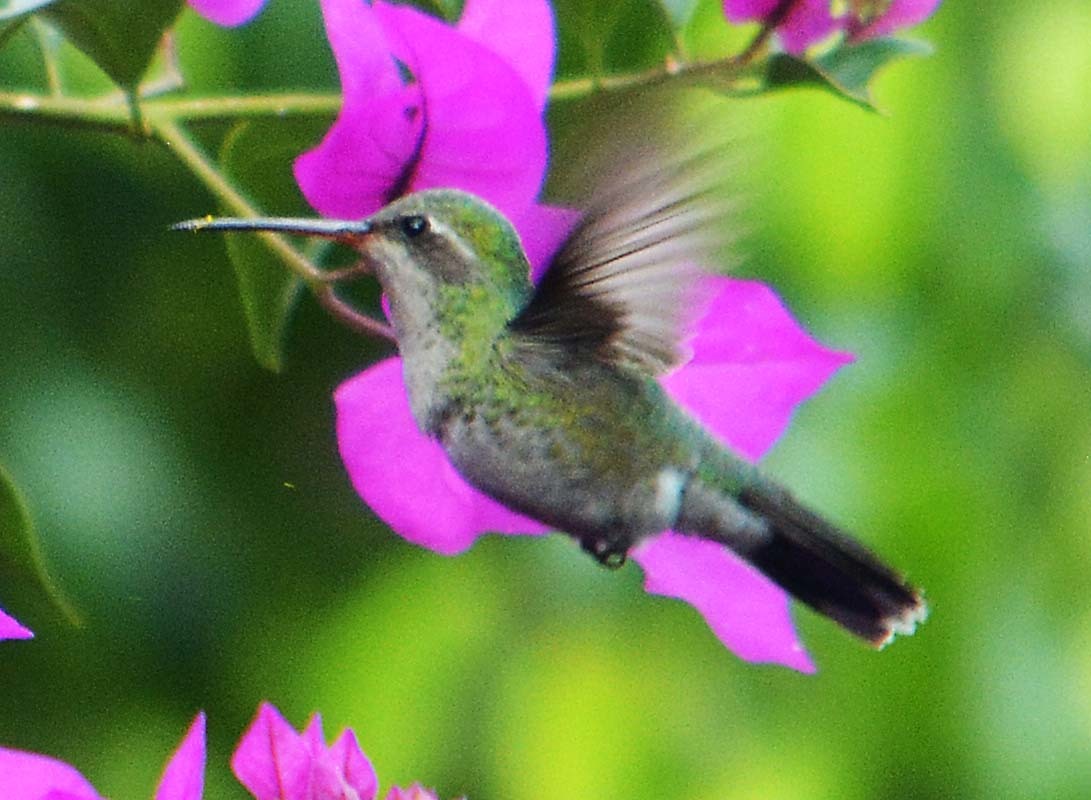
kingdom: Animalia
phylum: Chordata
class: Aves
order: Apodiformes
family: Trochilidae
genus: Cynanthus
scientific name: Cynanthus latirostris
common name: Broad-billed hummingbird
